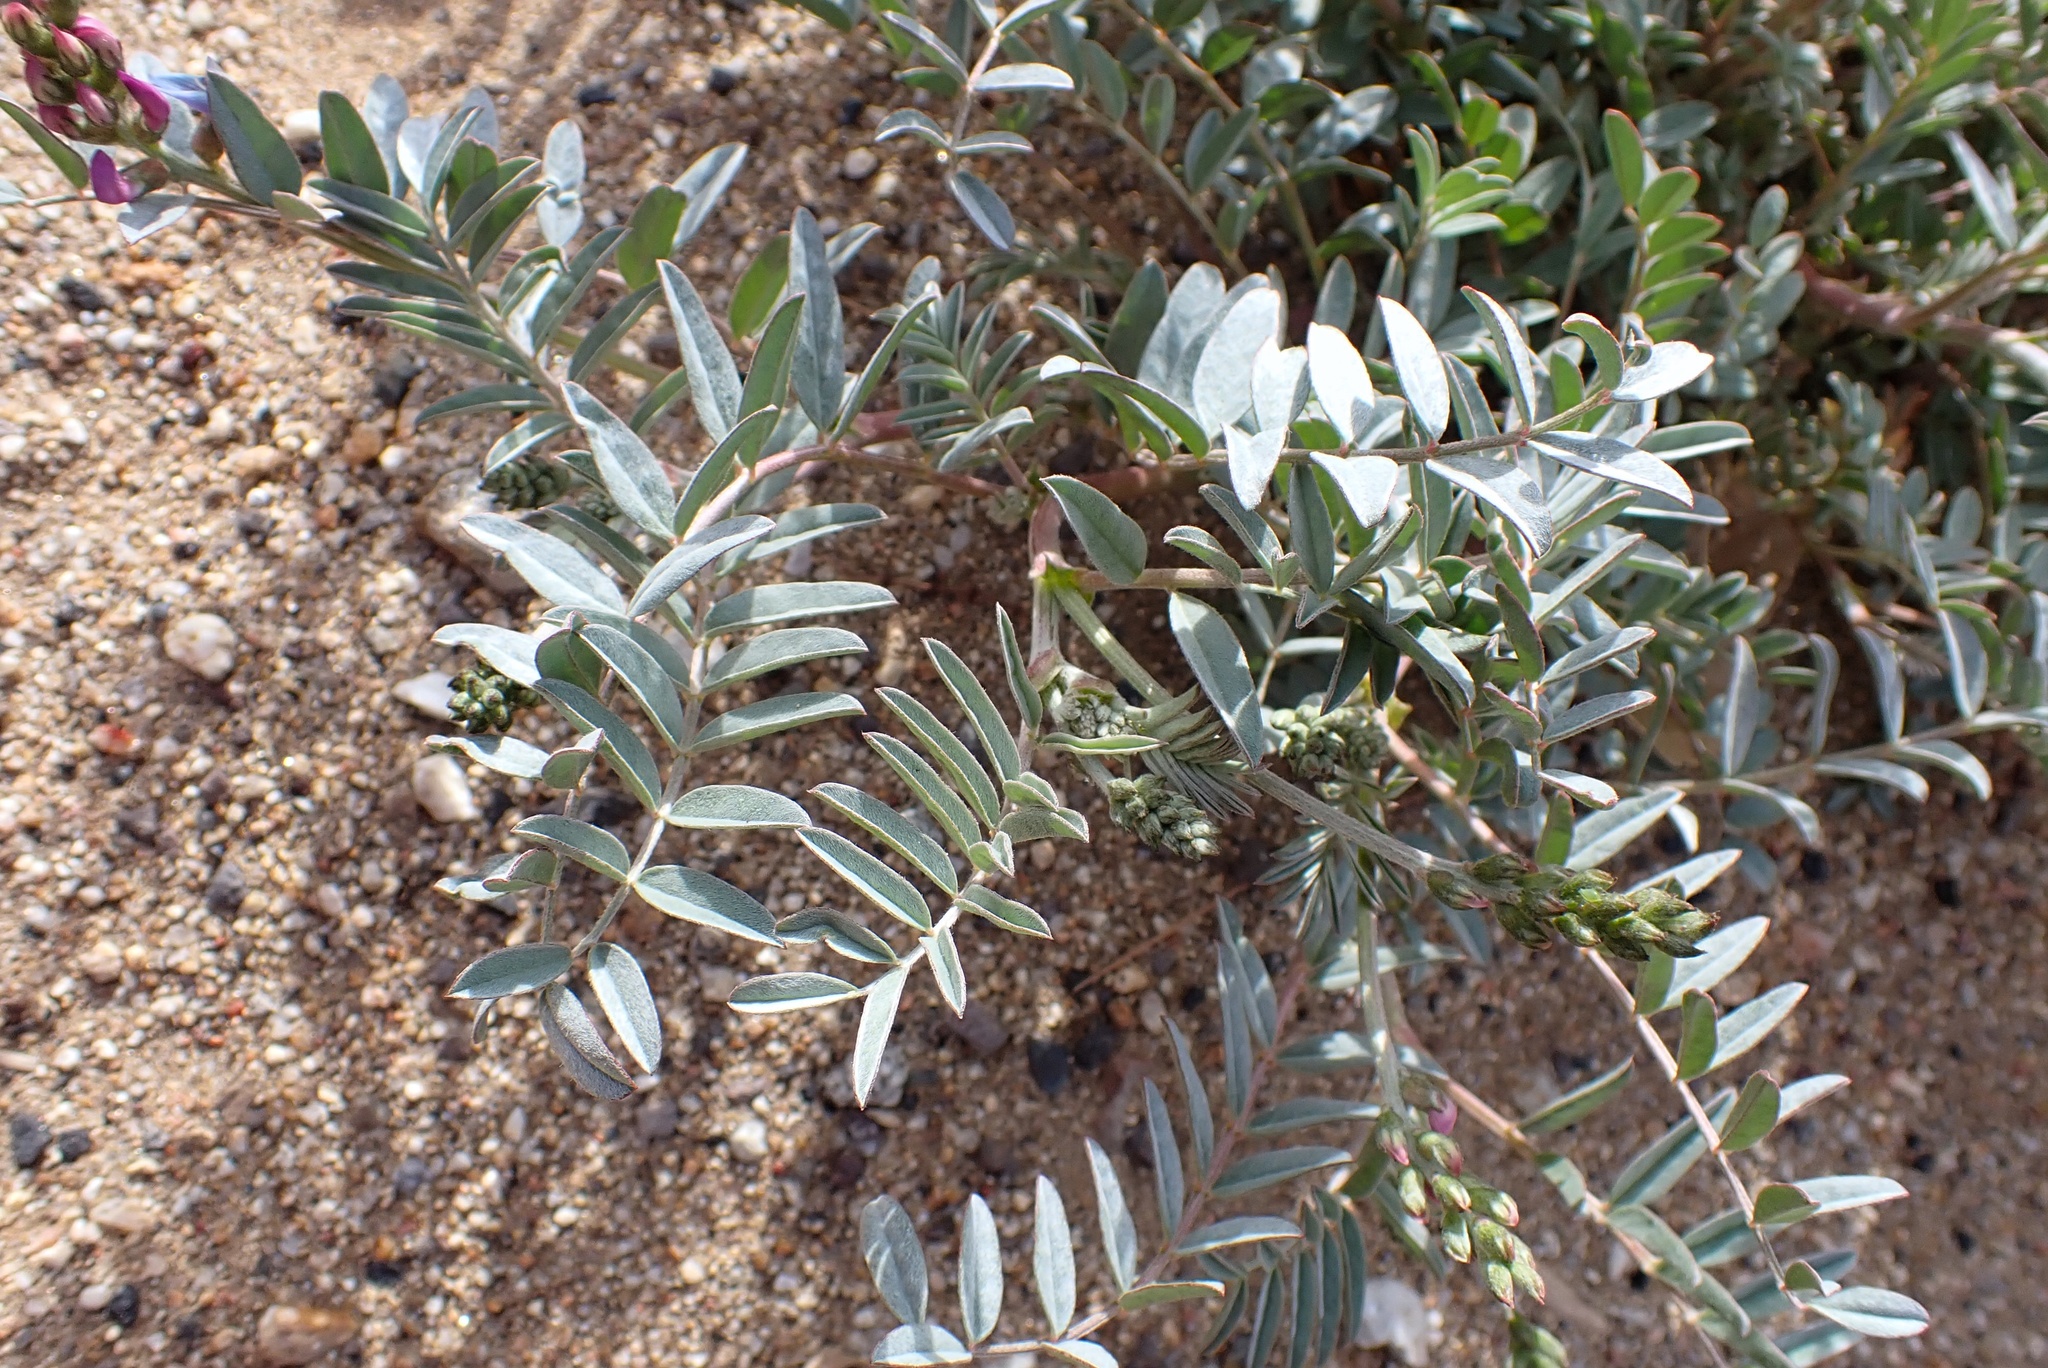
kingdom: Plantae
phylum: Tracheophyta
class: Magnoliopsida
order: Fabales
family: Fabaceae
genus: Astragalus
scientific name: Astragalus palmeri
